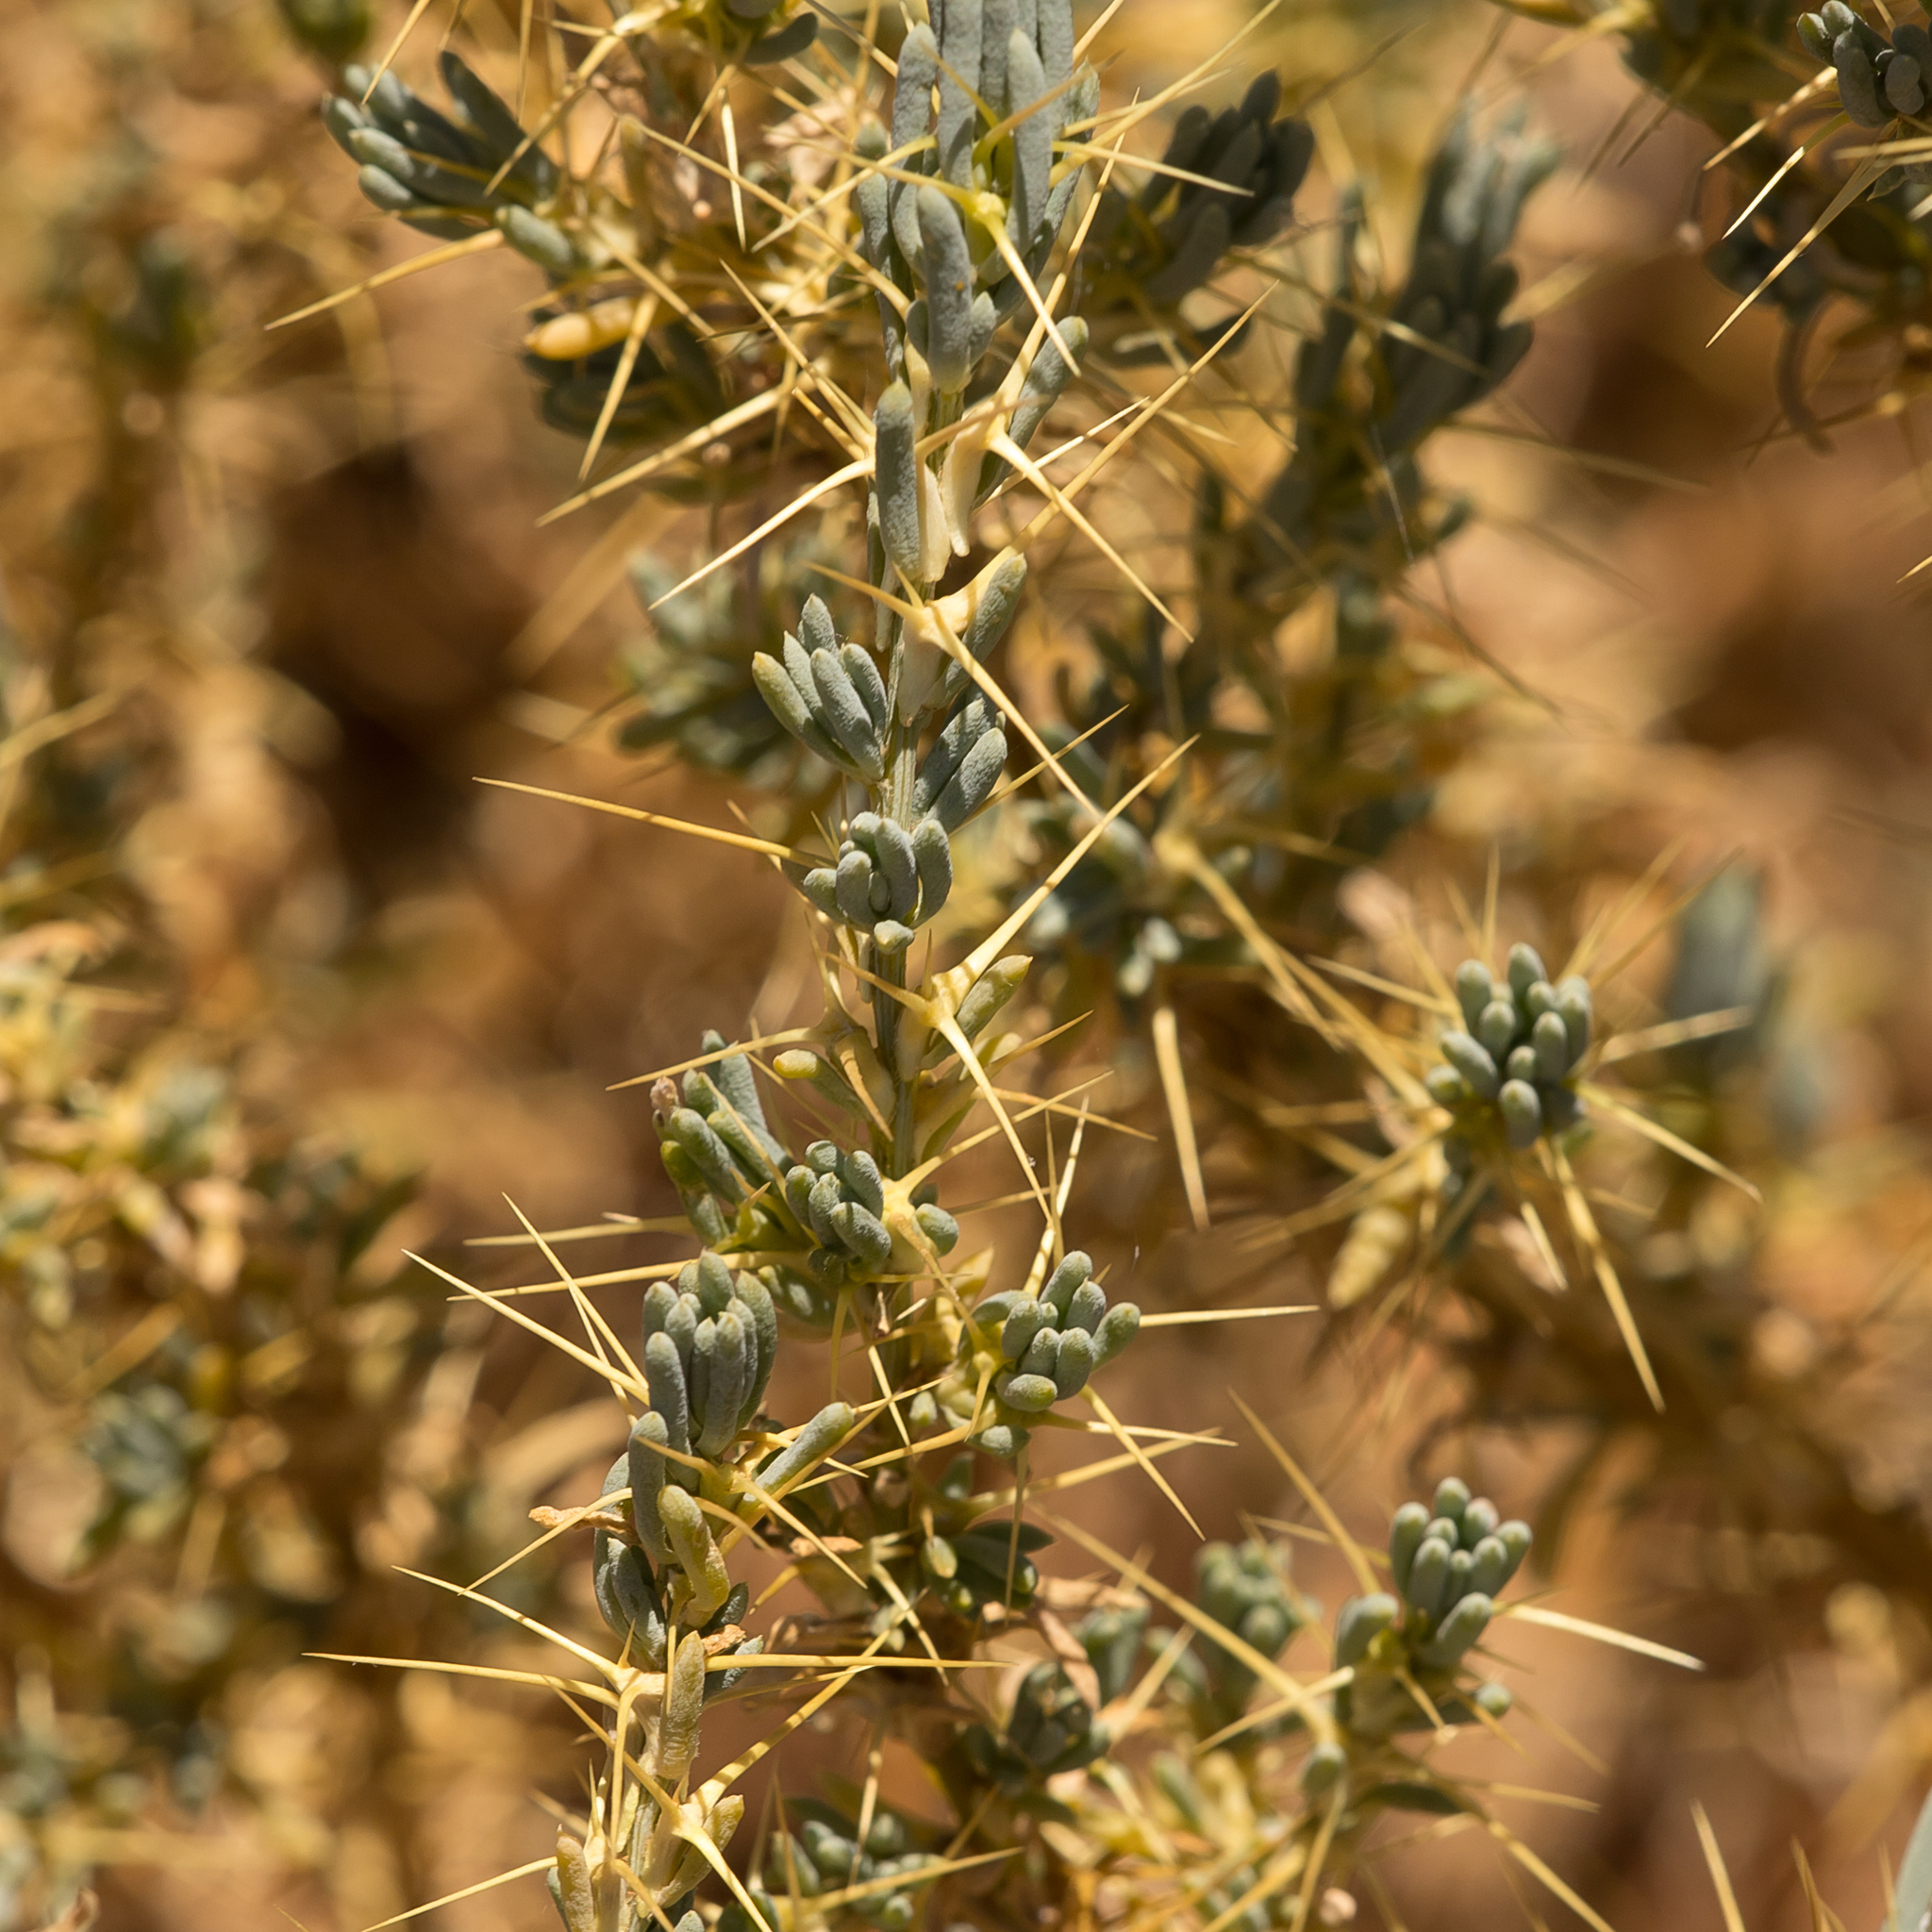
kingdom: Plantae
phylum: Tracheophyta
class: Magnoliopsida
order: Caryophyllales
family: Amaranthaceae
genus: Sclerolaena
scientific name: Sclerolaena divaricata
